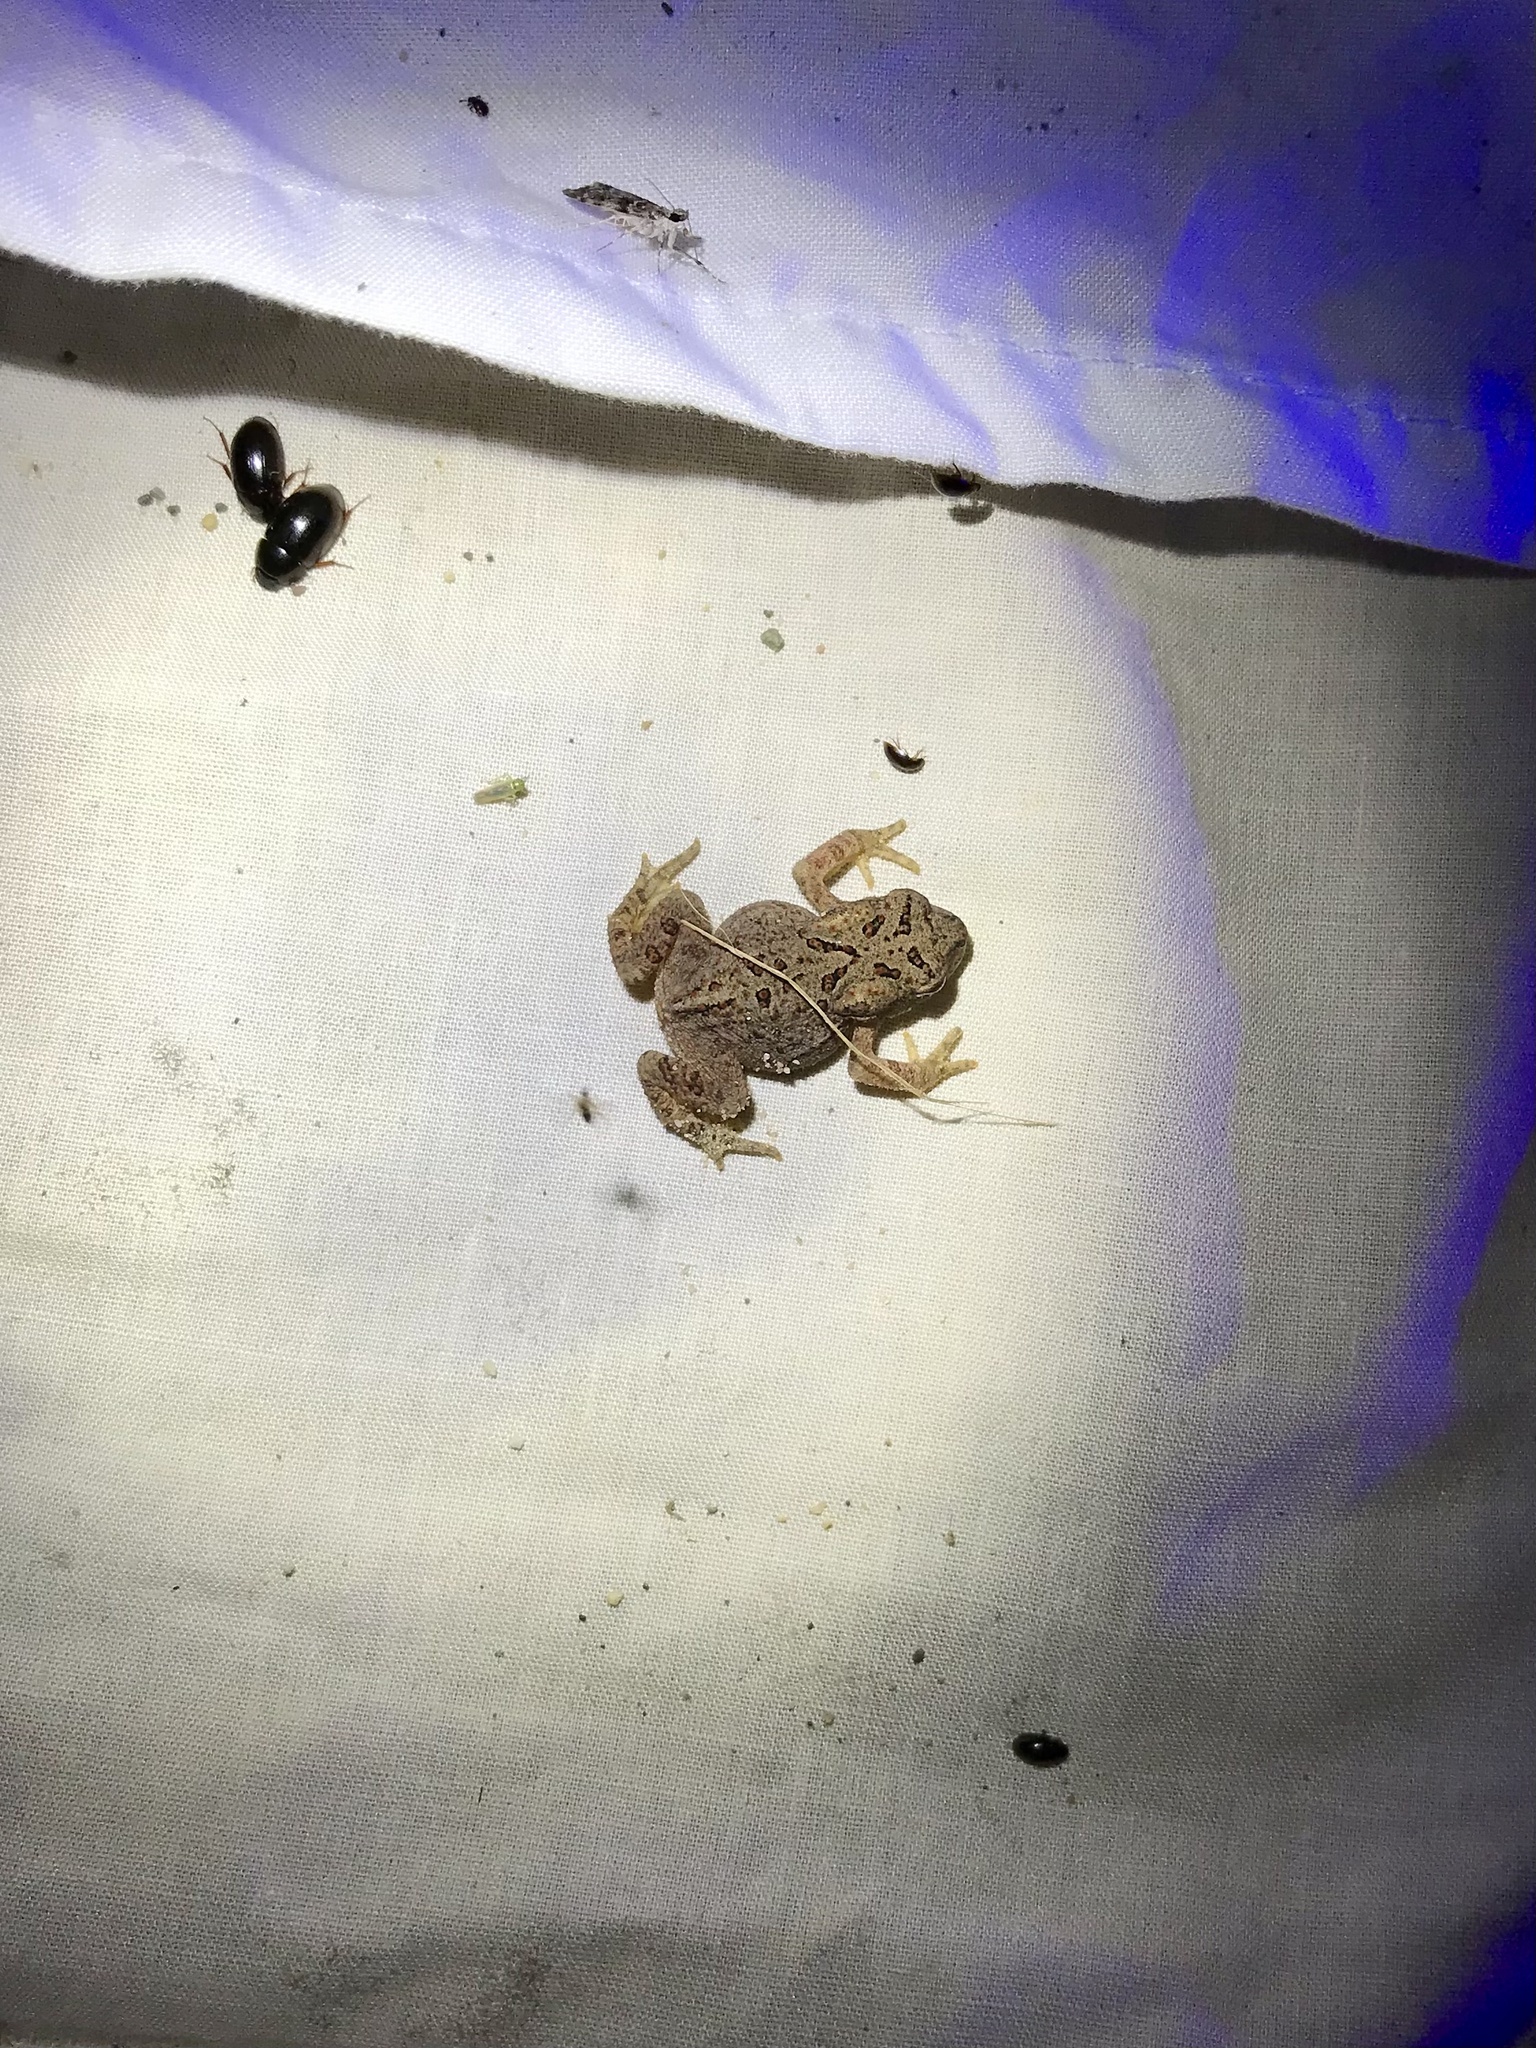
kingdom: Animalia
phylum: Chordata
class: Amphibia
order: Anura
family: Bufonidae
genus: Anaxyrus
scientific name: Anaxyrus americanus
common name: American toad
